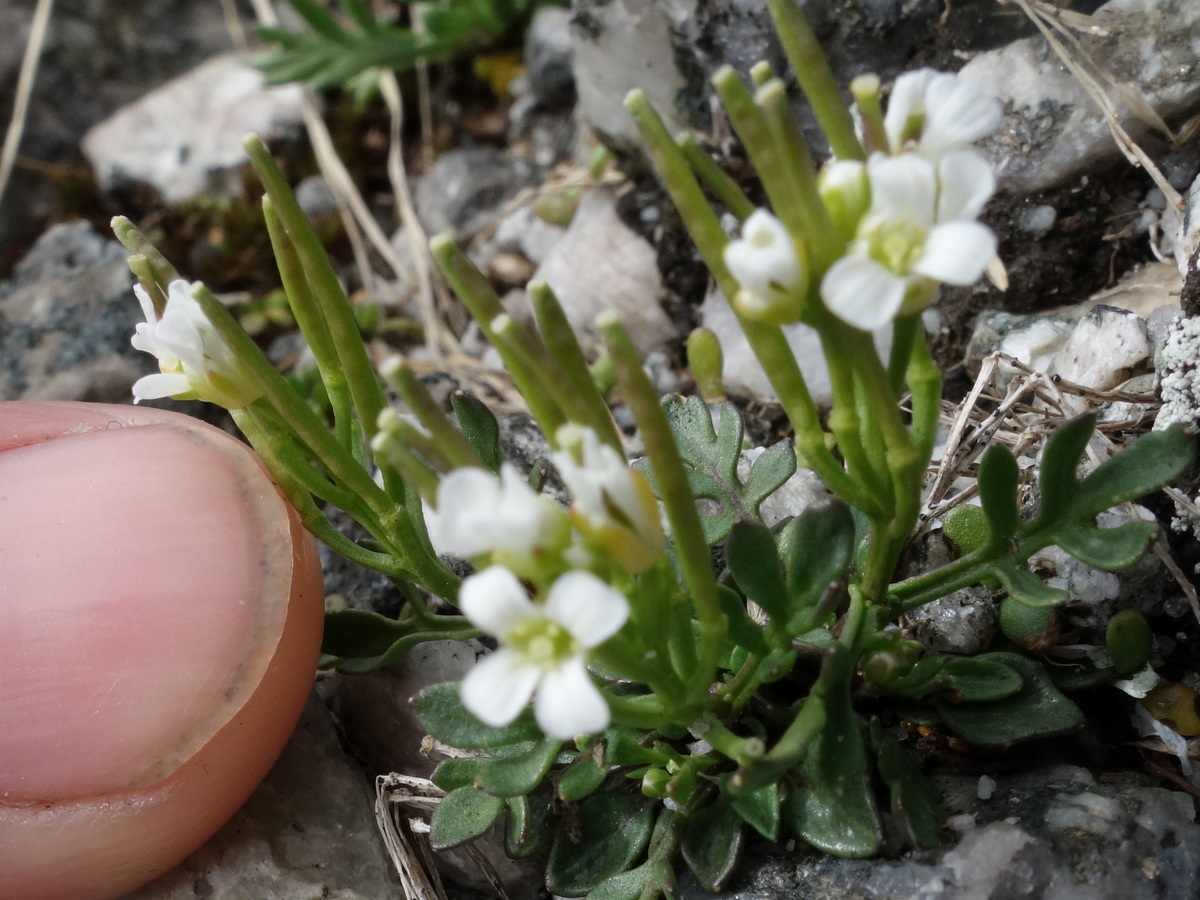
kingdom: Plantae
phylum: Tracheophyta
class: Magnoliopsida
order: Brassicales
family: Brassicaceae
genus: Cardamine
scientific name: Cardamine resedifolia
